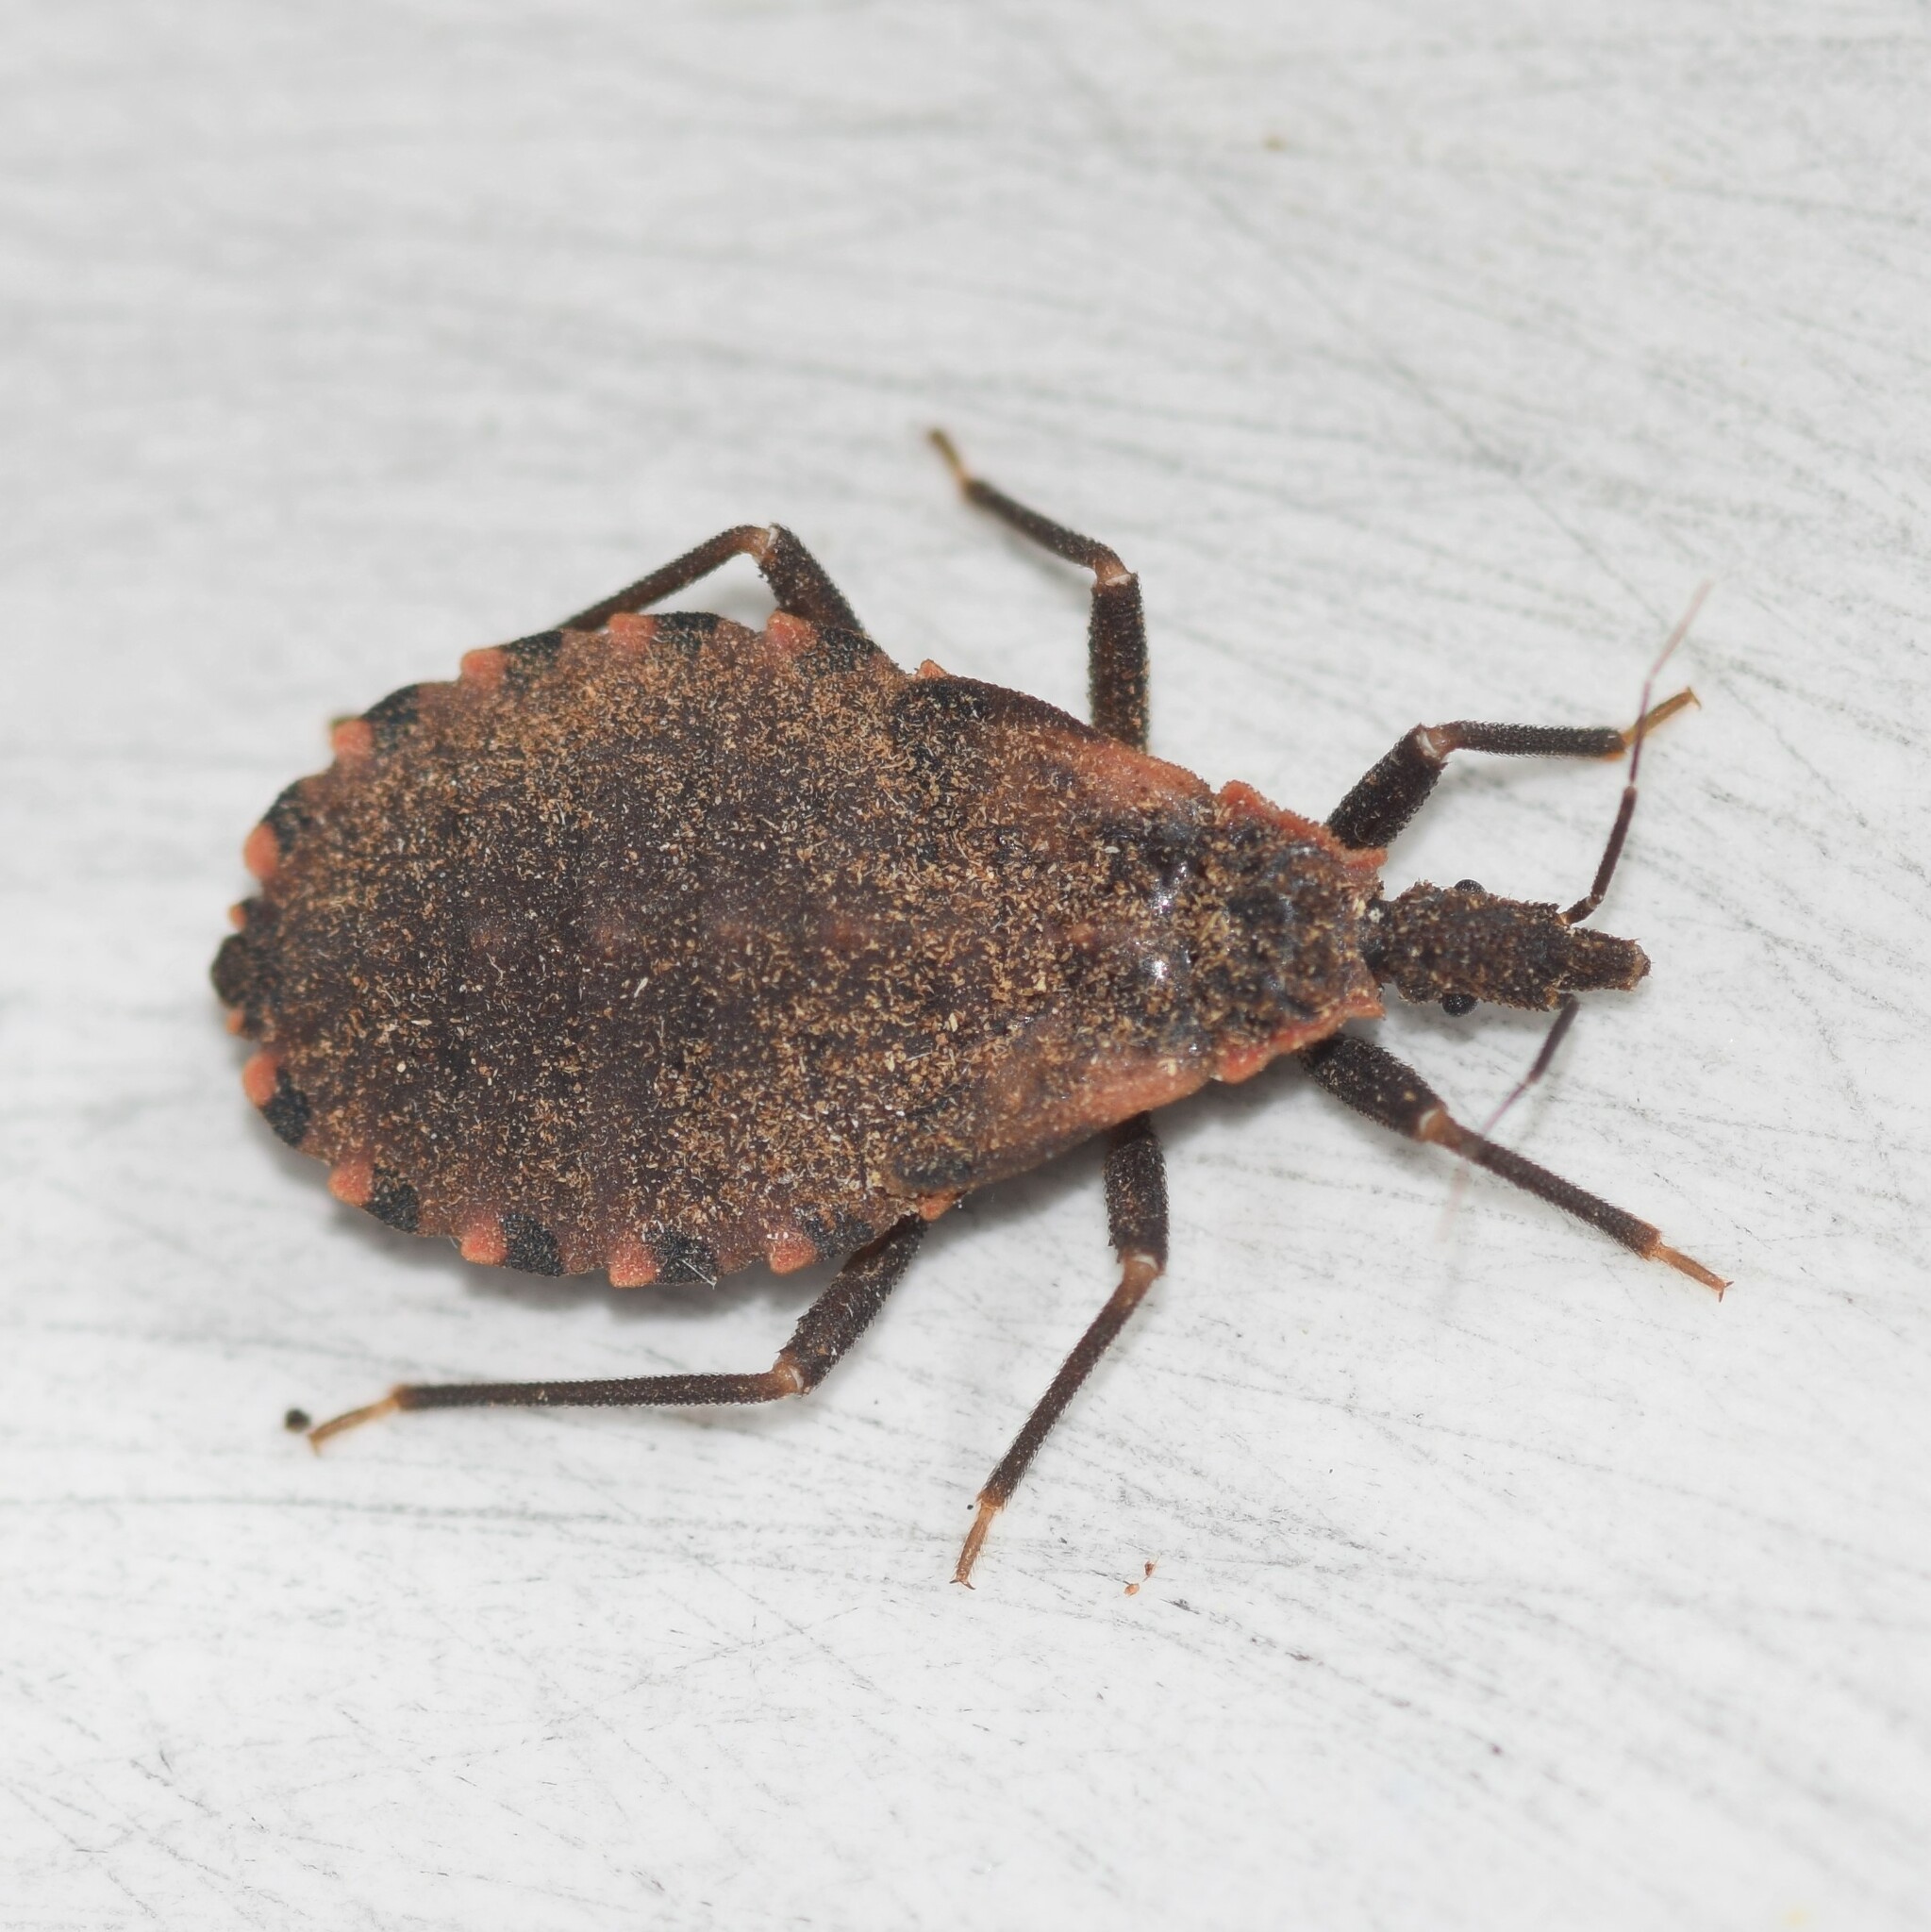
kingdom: Animalia
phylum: Arthropoda
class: Insecta
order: Hemiptera
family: Reduviidae
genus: Triatoma
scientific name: Triatoma sanguisuga
